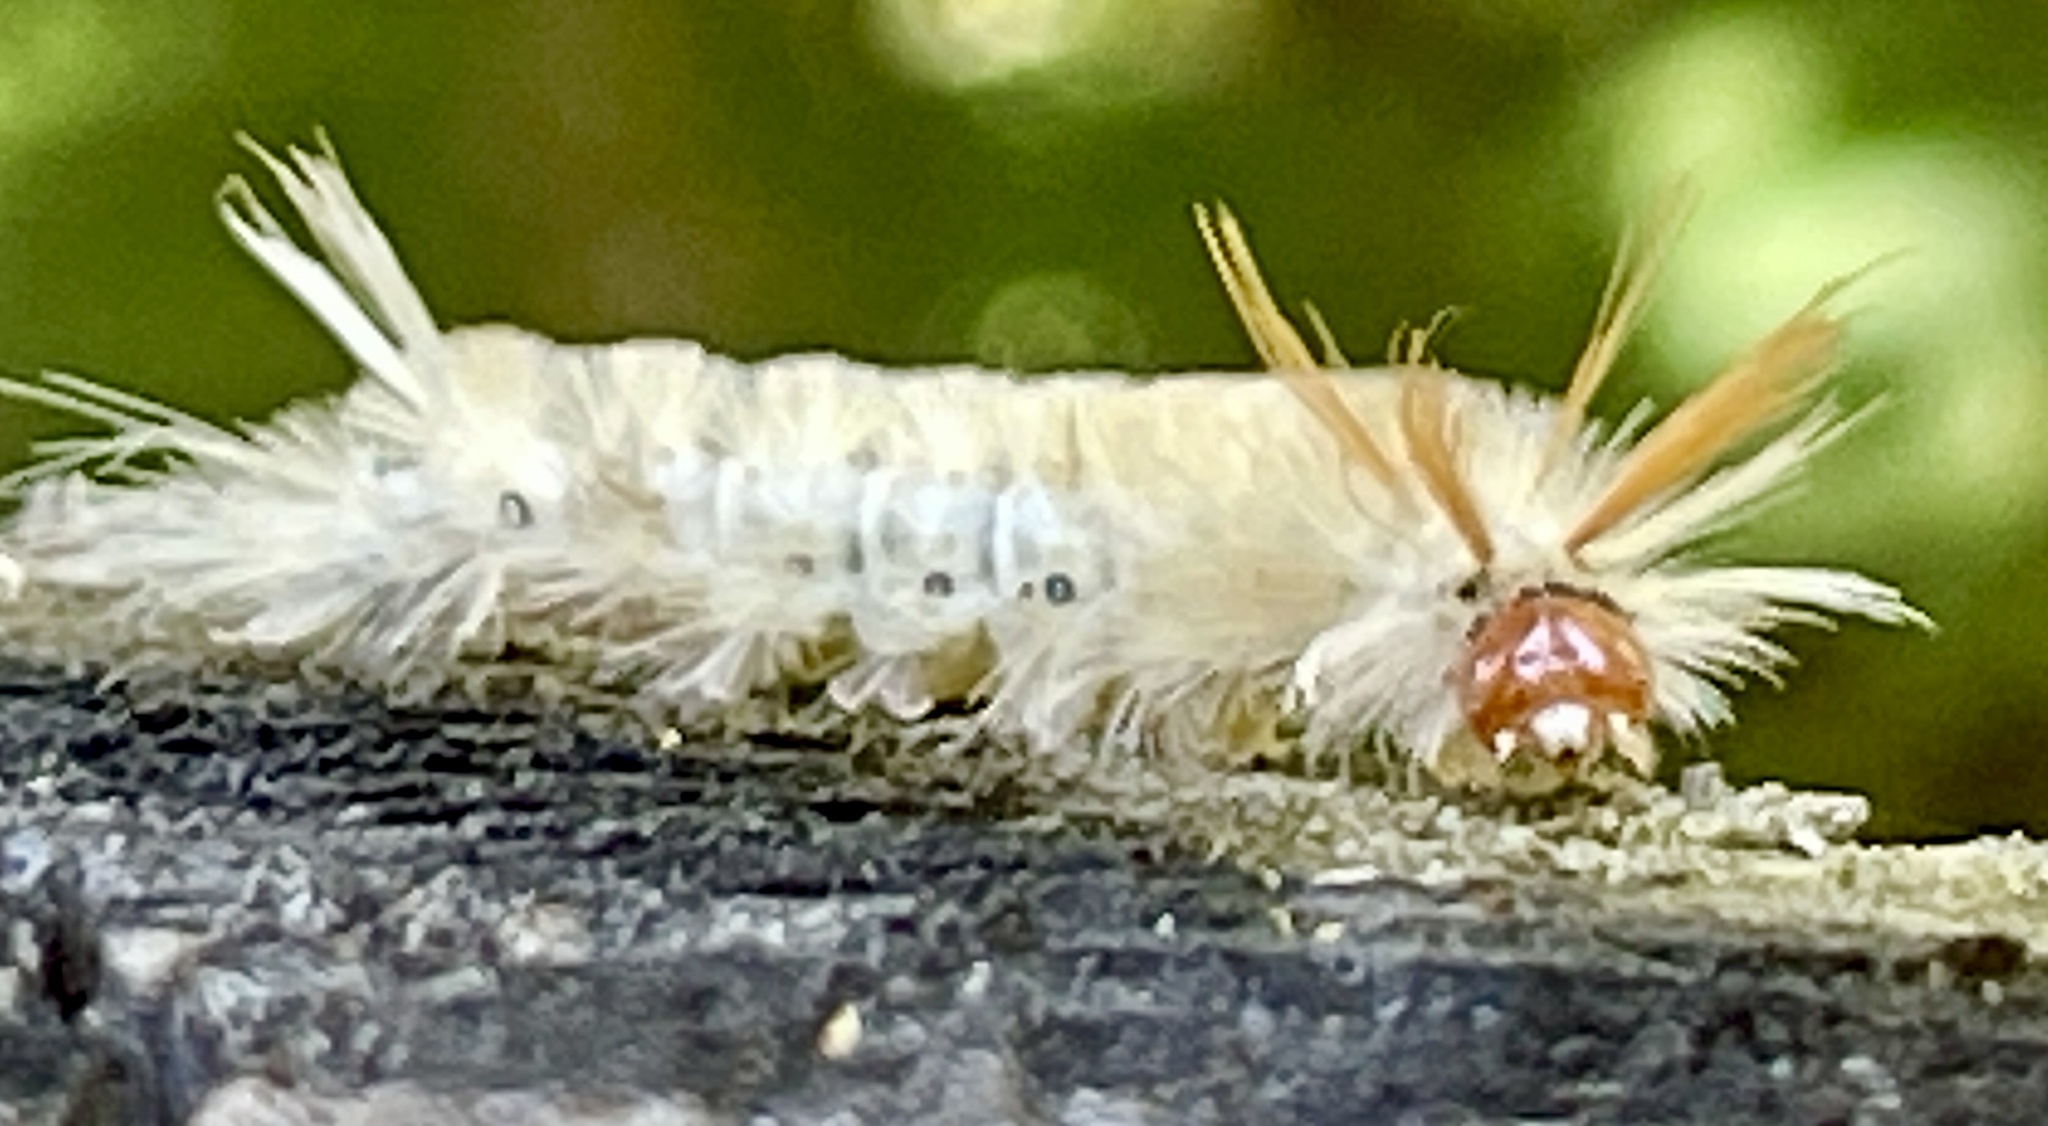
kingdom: Animalia
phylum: Arthropoda
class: Insecta
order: Lepidoptera
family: Erebidae
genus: Halysidota
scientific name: Halysidota harrisii
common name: Sycamore tussock moth
